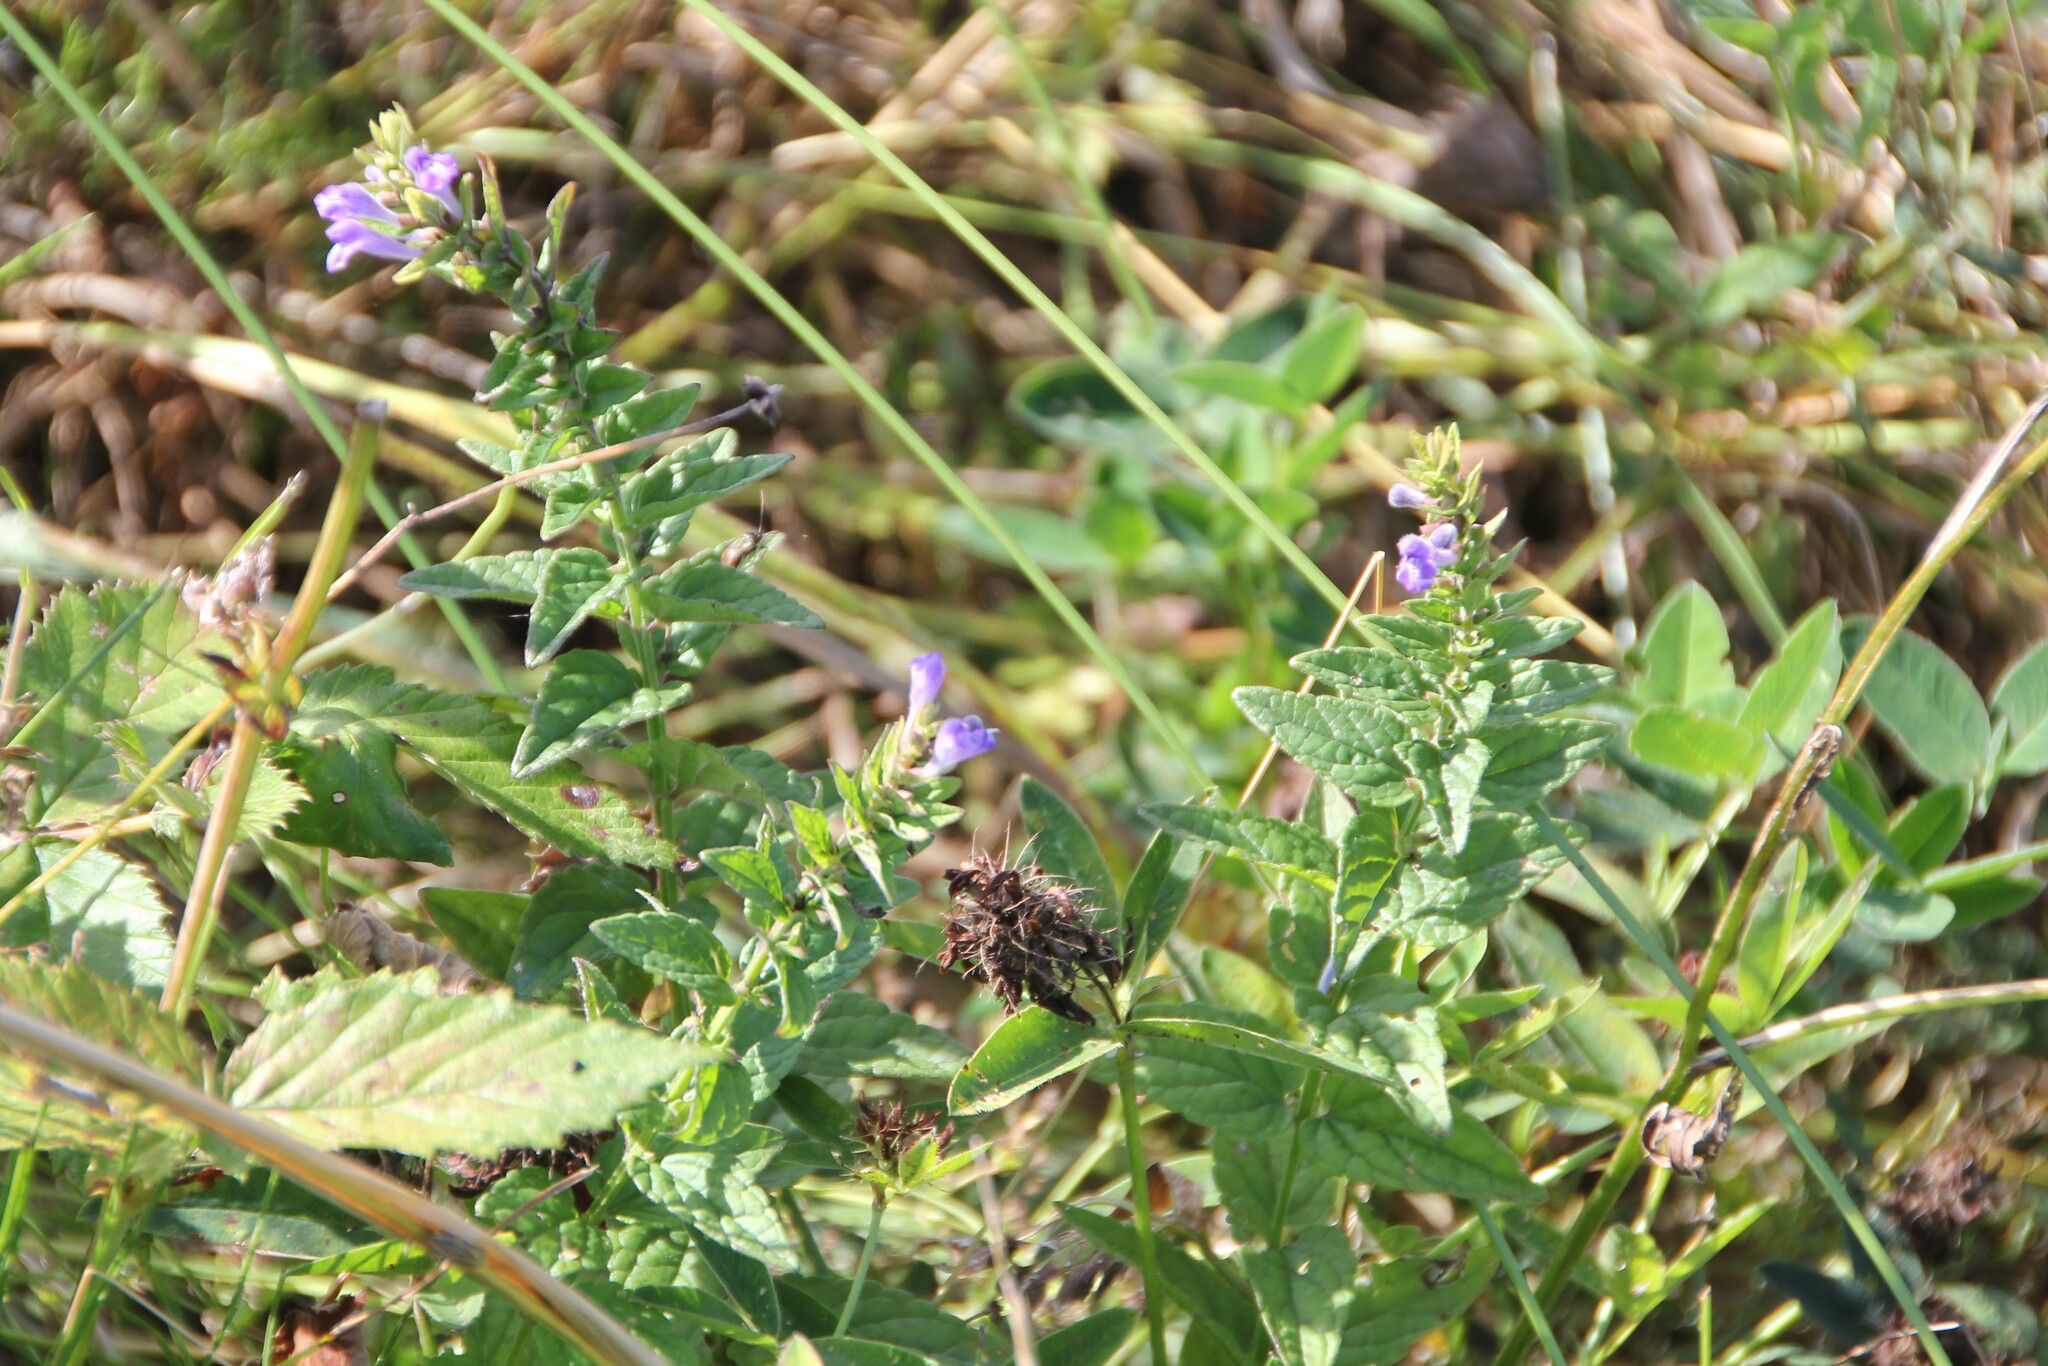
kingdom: Plantae
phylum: Tracheophyta
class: Magnoliopsida
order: Lamiales
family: Lamiaceae
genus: Scutellaria
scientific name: Scutellaria galericulata
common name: Skullcap
